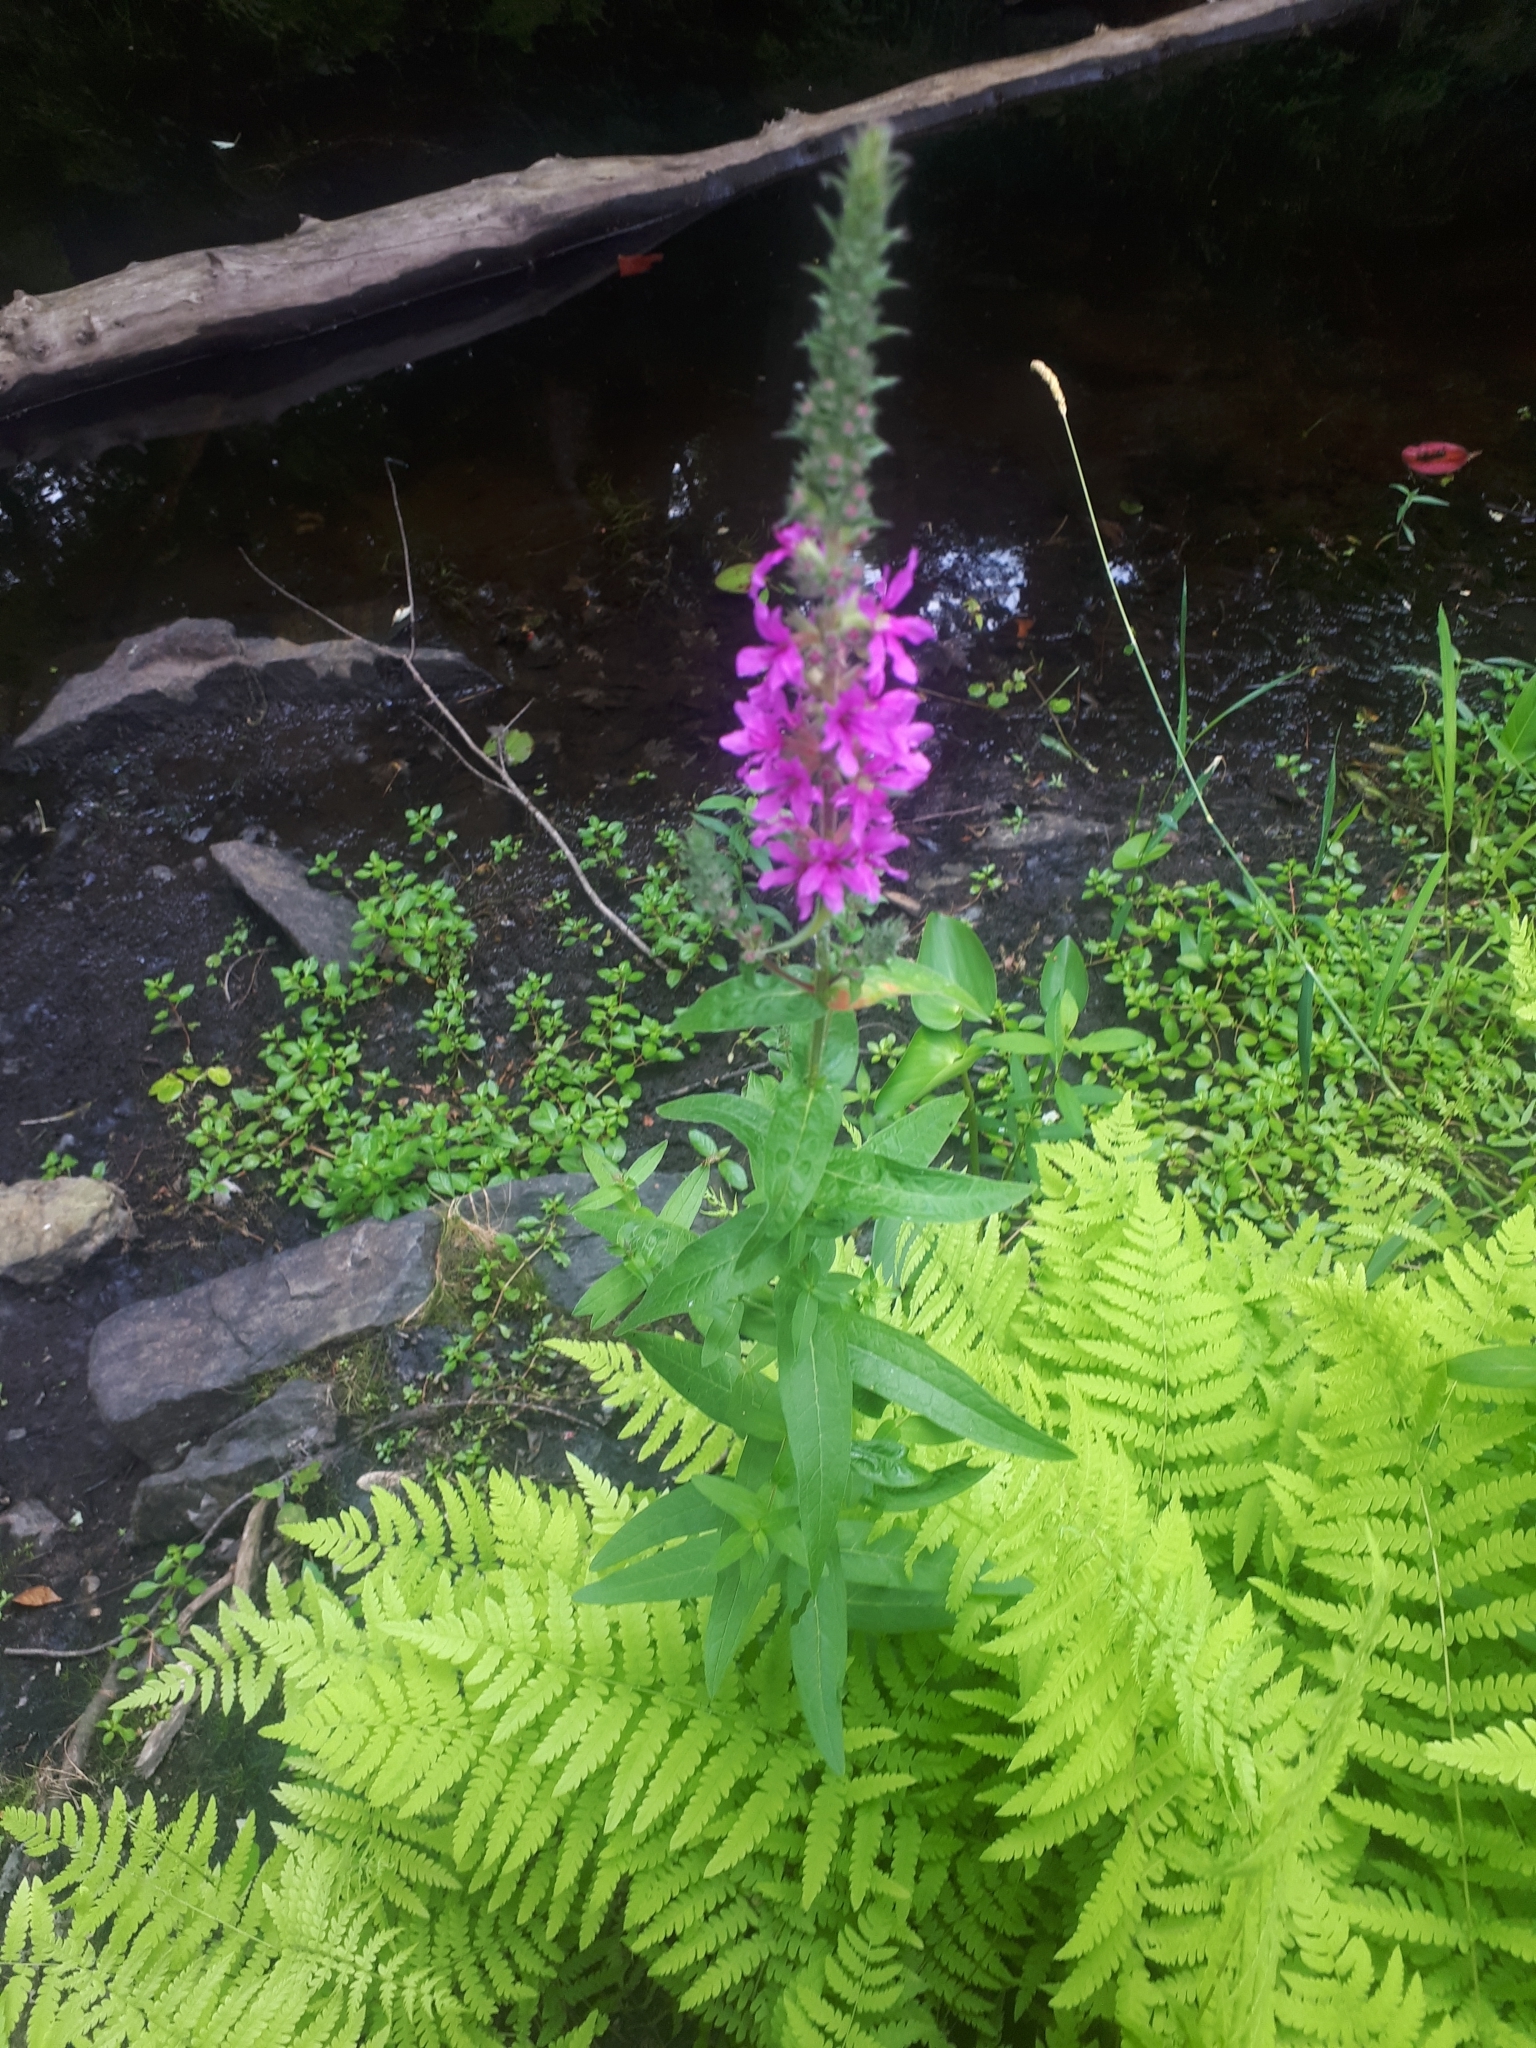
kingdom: Plantae
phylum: Tracheophyta
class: Magnoliopsida
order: Myrtales
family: Lythraceae
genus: Lythrum
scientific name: Lythrum salicaria
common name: Purple loosestrife
